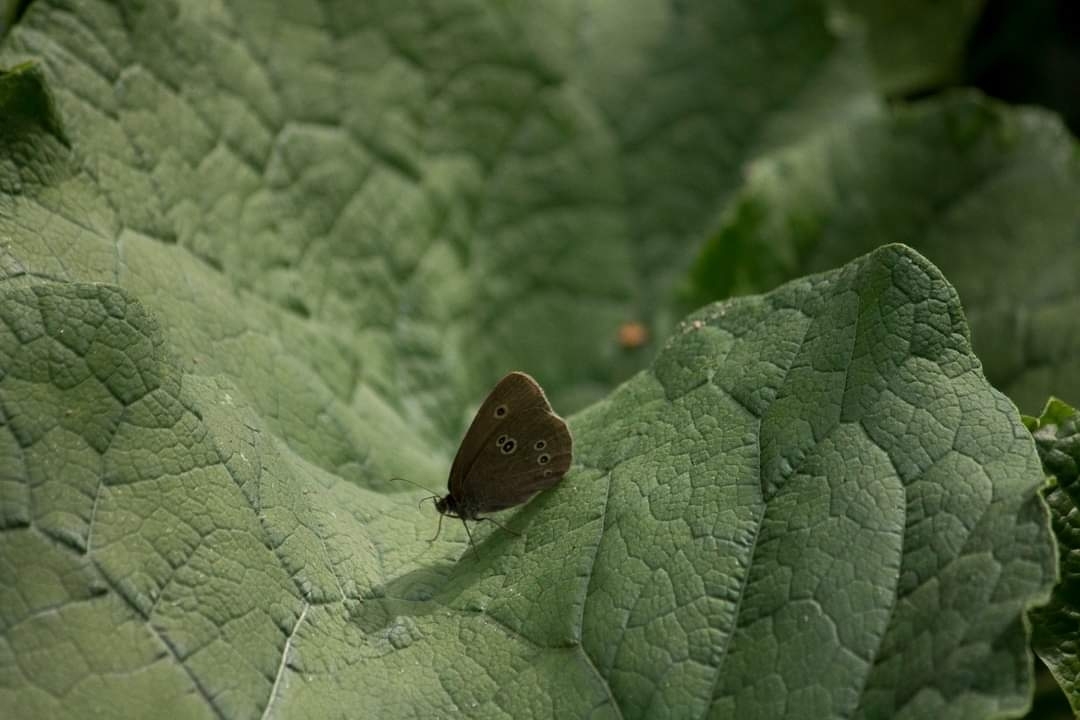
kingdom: Animalia
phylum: Arthropoda
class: Insecta
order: Lepidoptera
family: Nymphalidae
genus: Aphantopus
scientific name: Aphantopus hyperantus
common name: Ringlet
